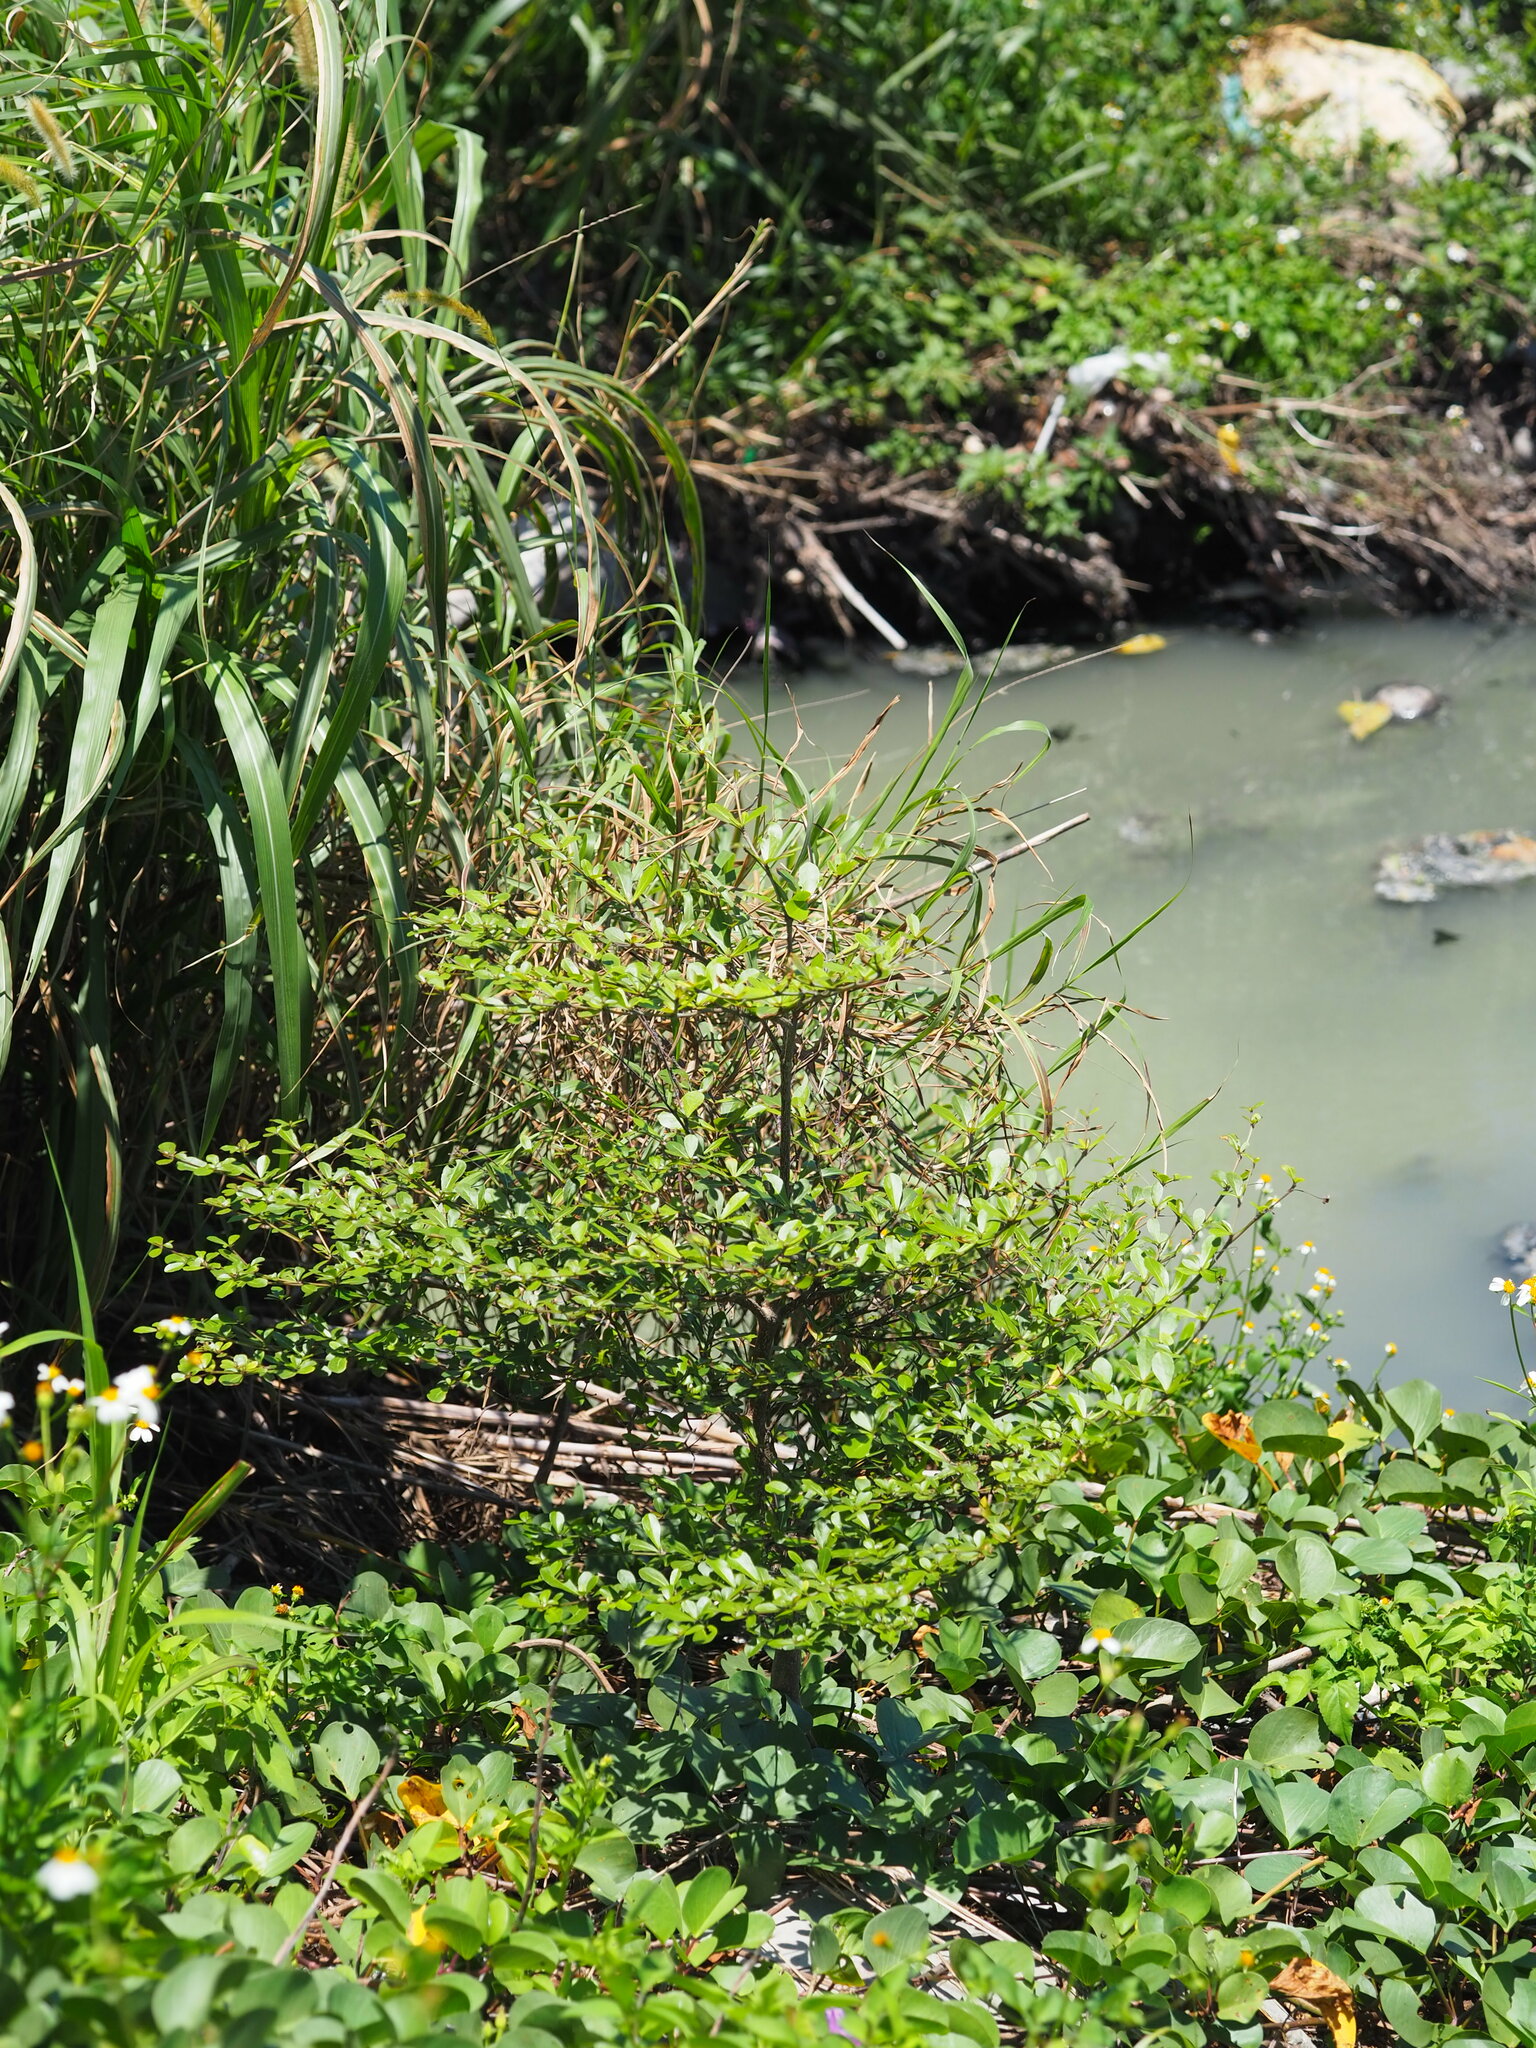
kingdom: Plantae
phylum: Tracheophyta
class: Magnoliopsida
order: Myrtales
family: Combretaceae
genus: Terminalia
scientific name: Terminalia neotaliala
